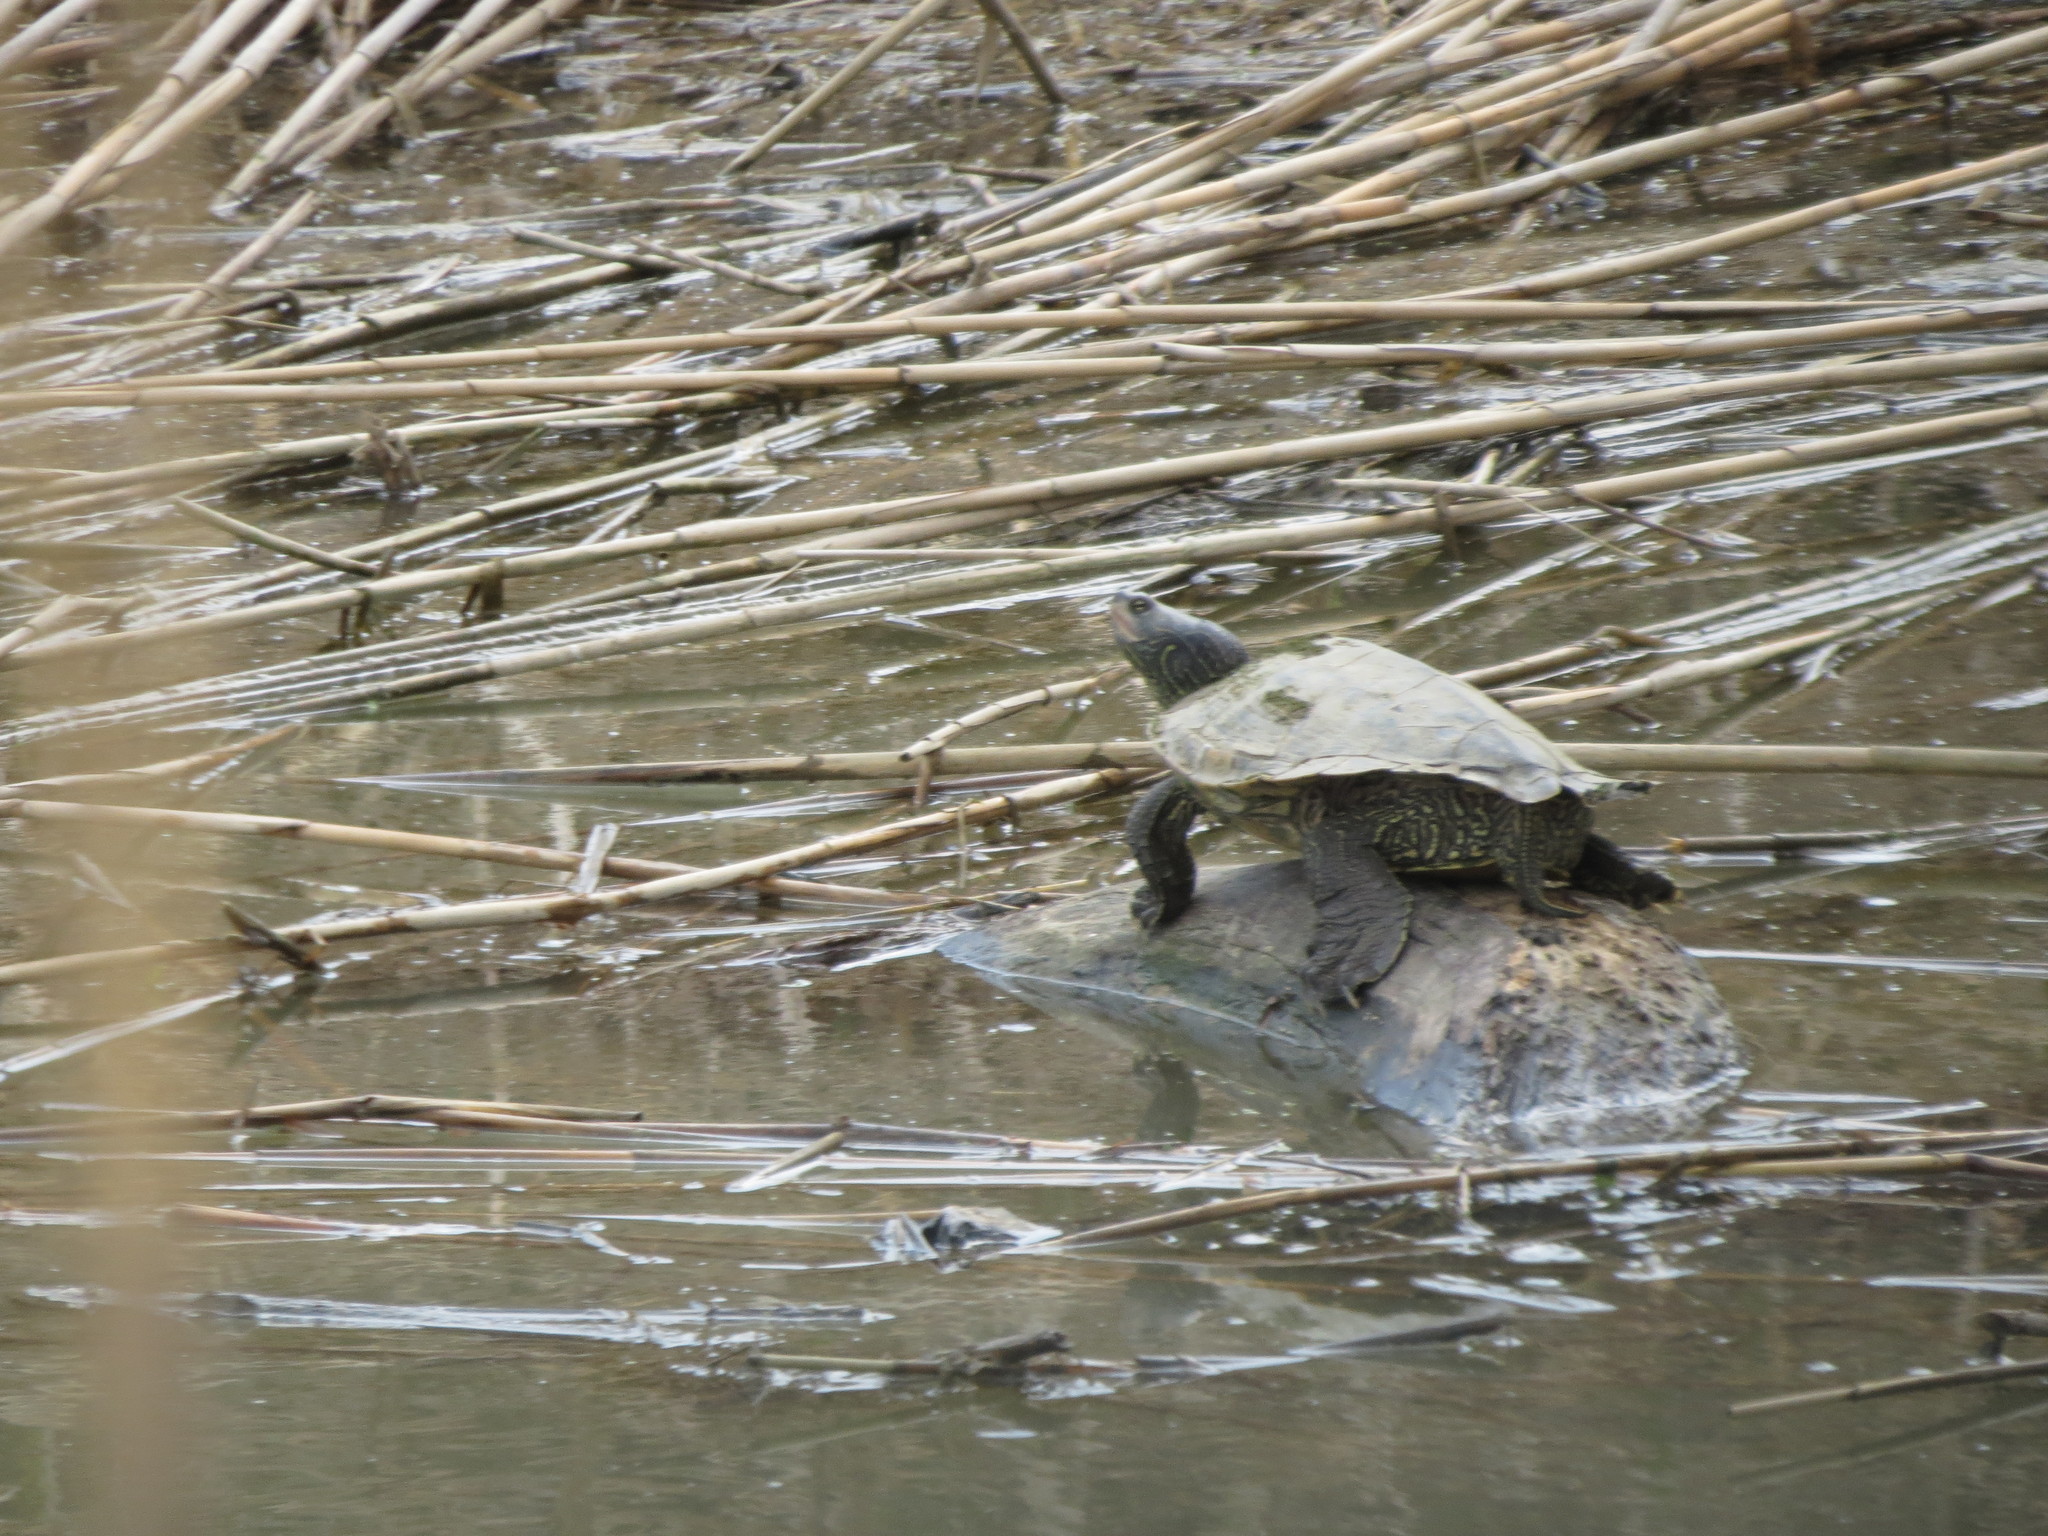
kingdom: Animalia
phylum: Chordata
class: Testudines
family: Emydidae
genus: Graptemys
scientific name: Graptemys geographica
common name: Common map turtle
